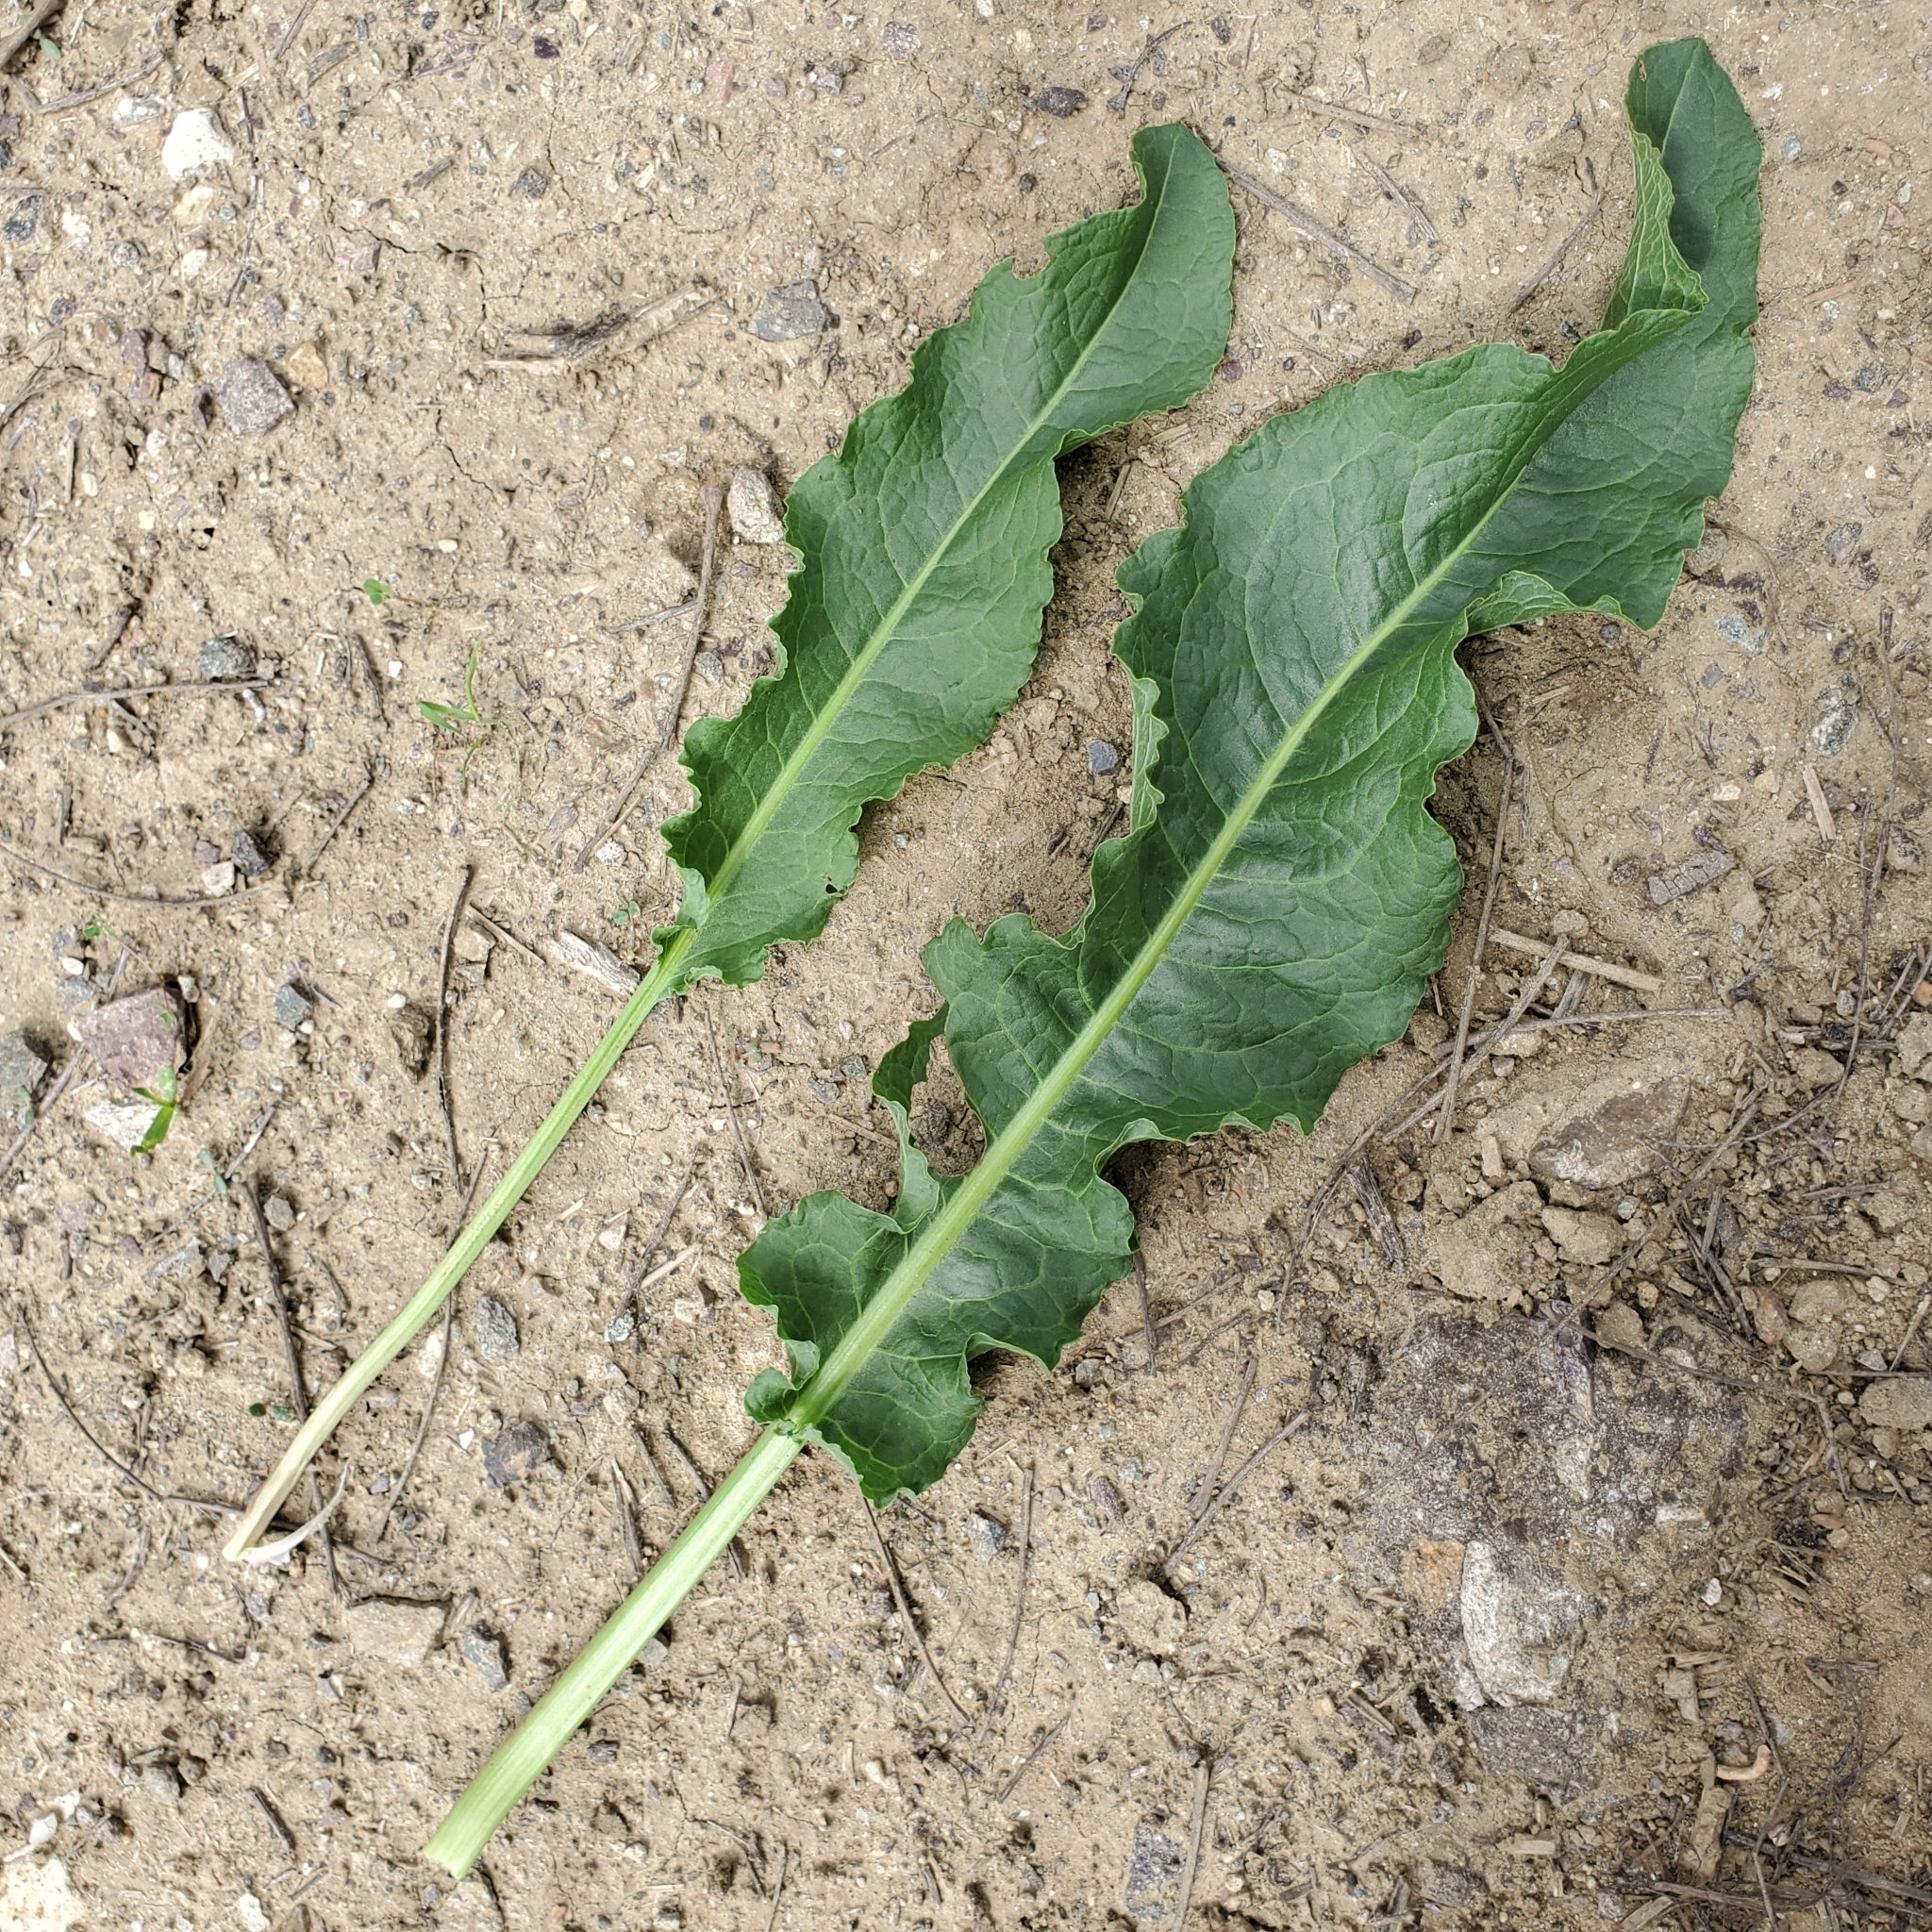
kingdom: Plantae
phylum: Tracheophyta
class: Magnoliopsida
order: Caryophyllales
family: Polygonaceae
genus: Rumex
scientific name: Rumex crispus
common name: Curled dock
